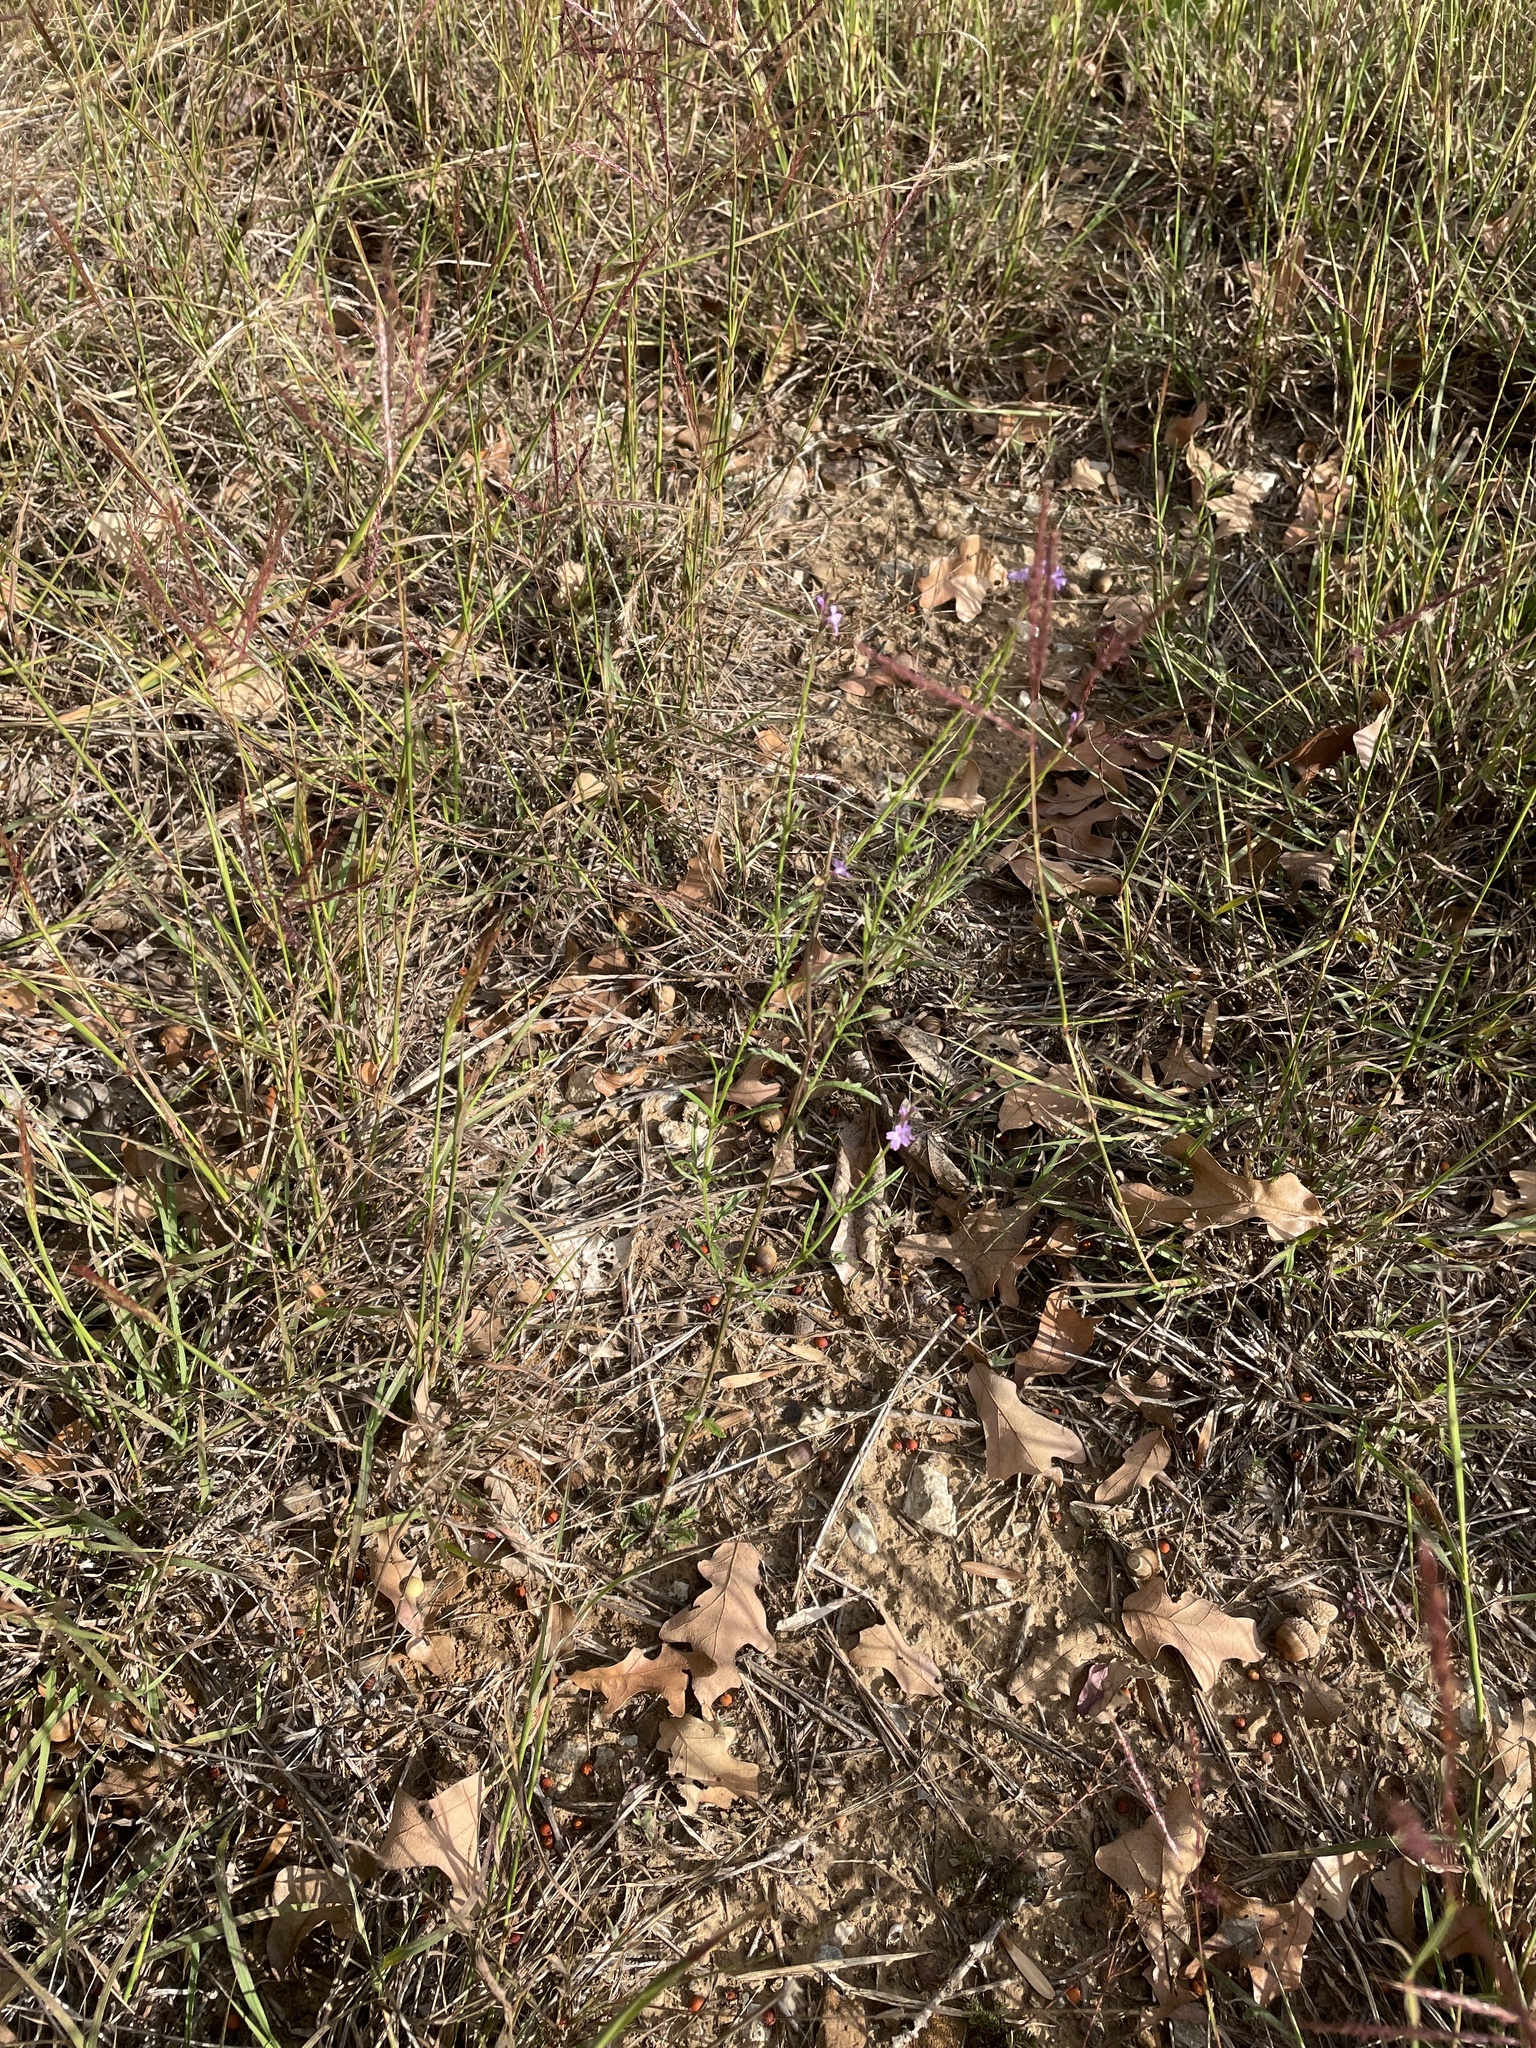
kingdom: Plantae
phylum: Tracheophyta
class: Magnoliopsida
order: Lamiales
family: Verbenaceae
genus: Verbena
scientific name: Verbena halei
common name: Texas vervain
